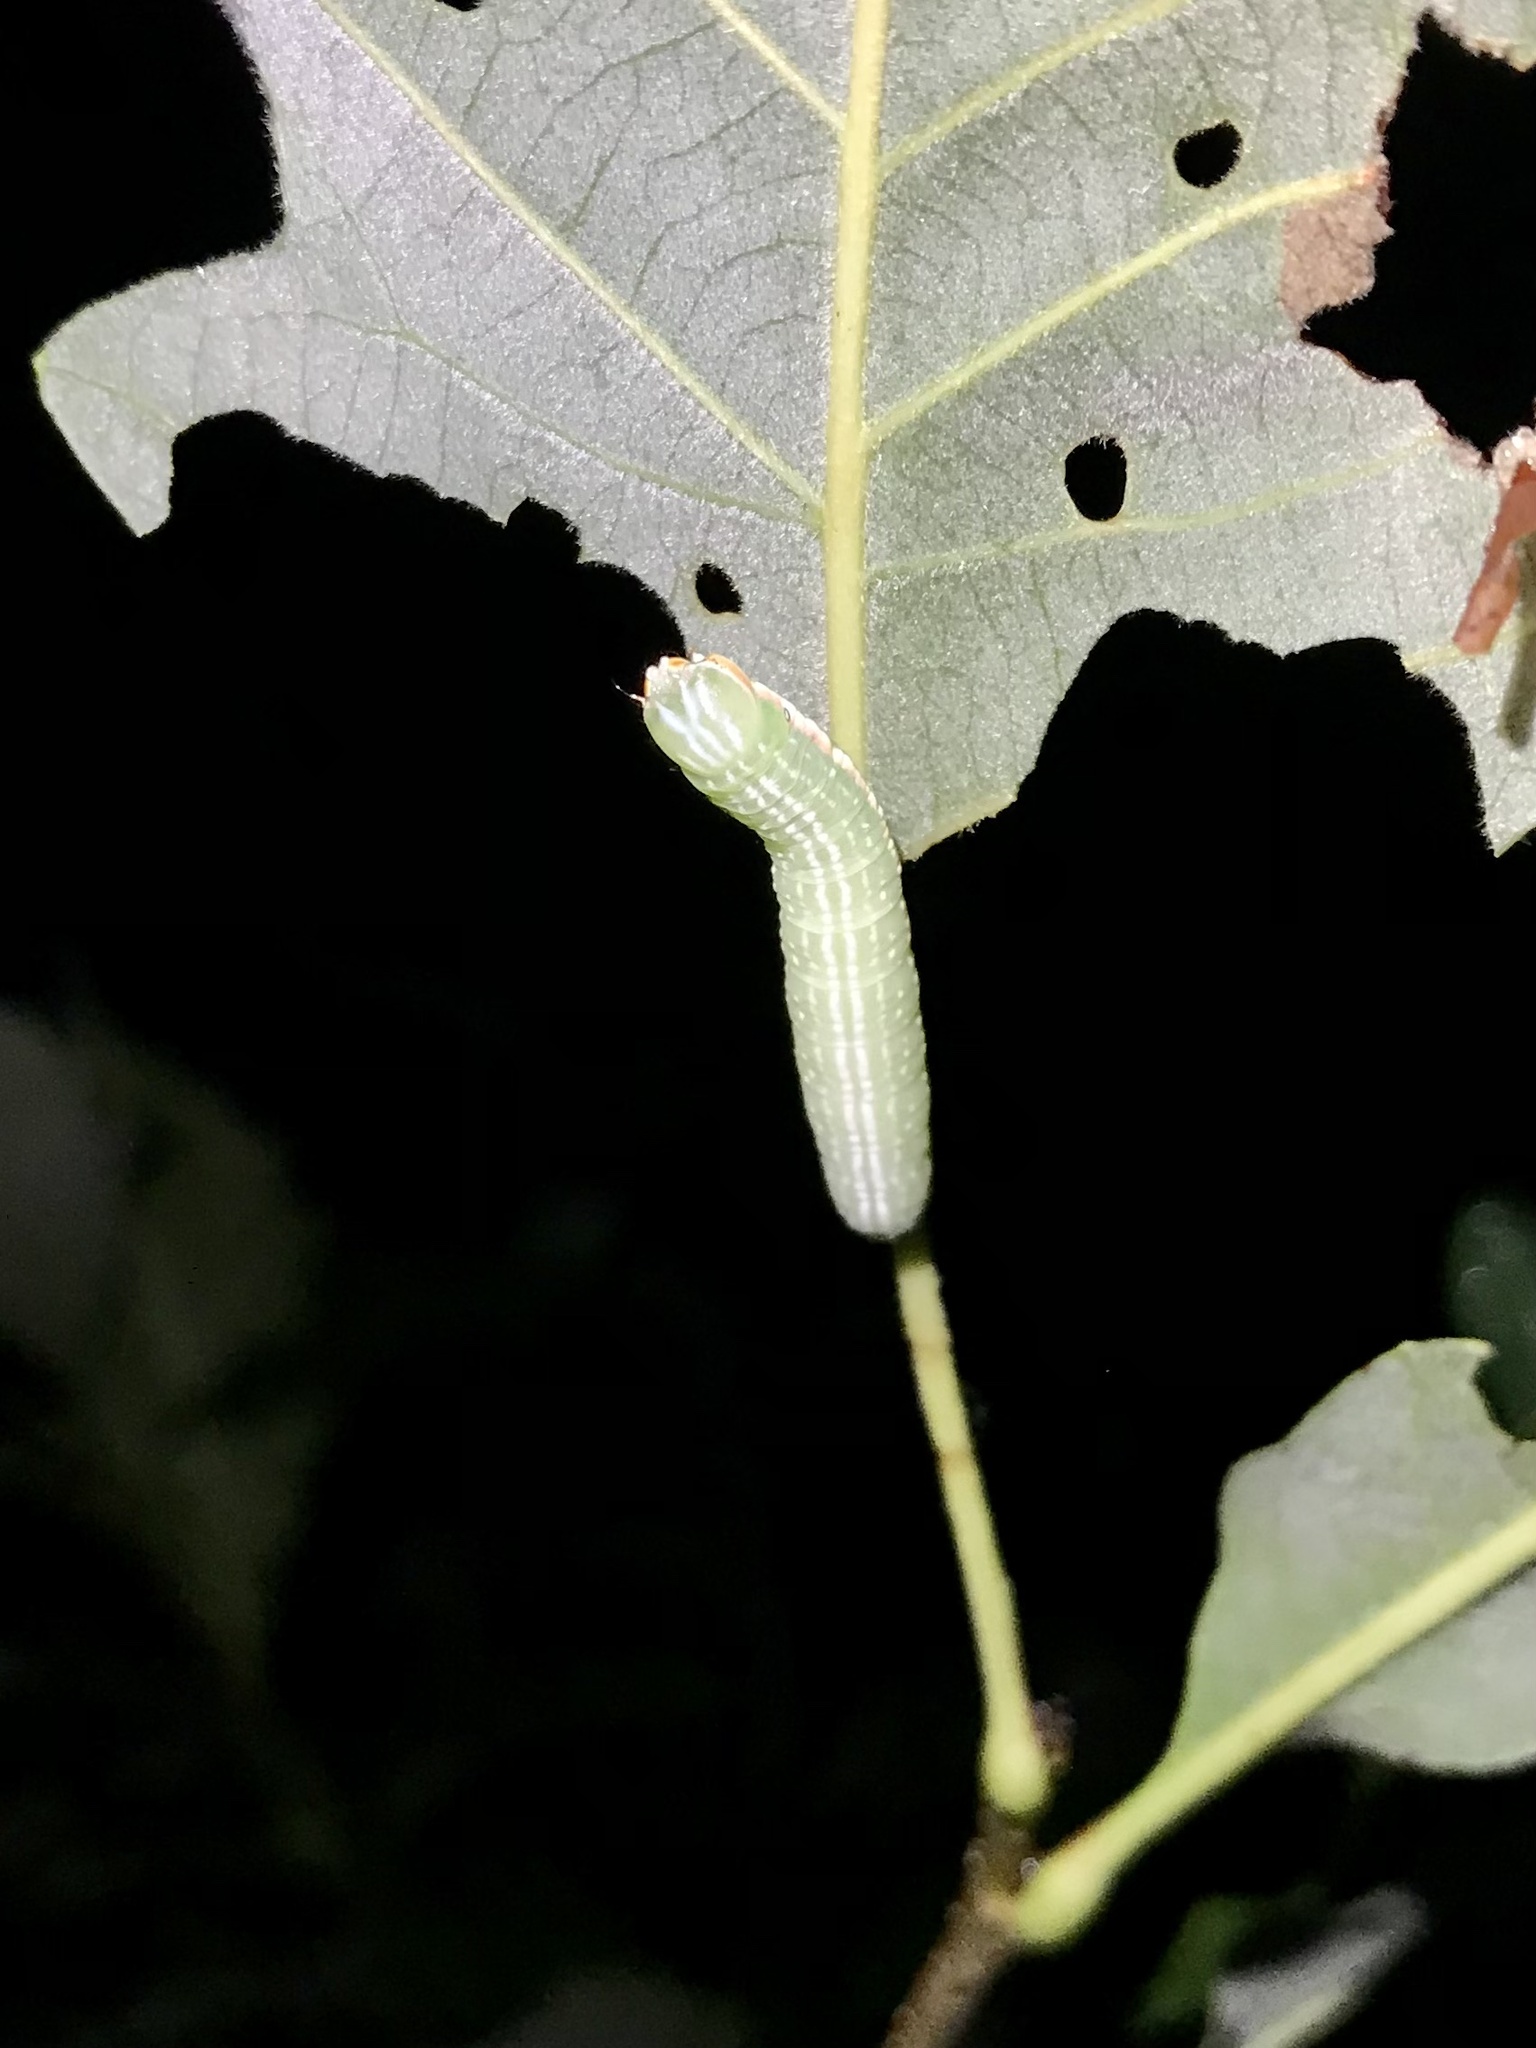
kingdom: Animalia
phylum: Arthropoda
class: Insecta
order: Lepidoptera
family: Notodontidae
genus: Peridea
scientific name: Peridea angulosa
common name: Angulose prominent
